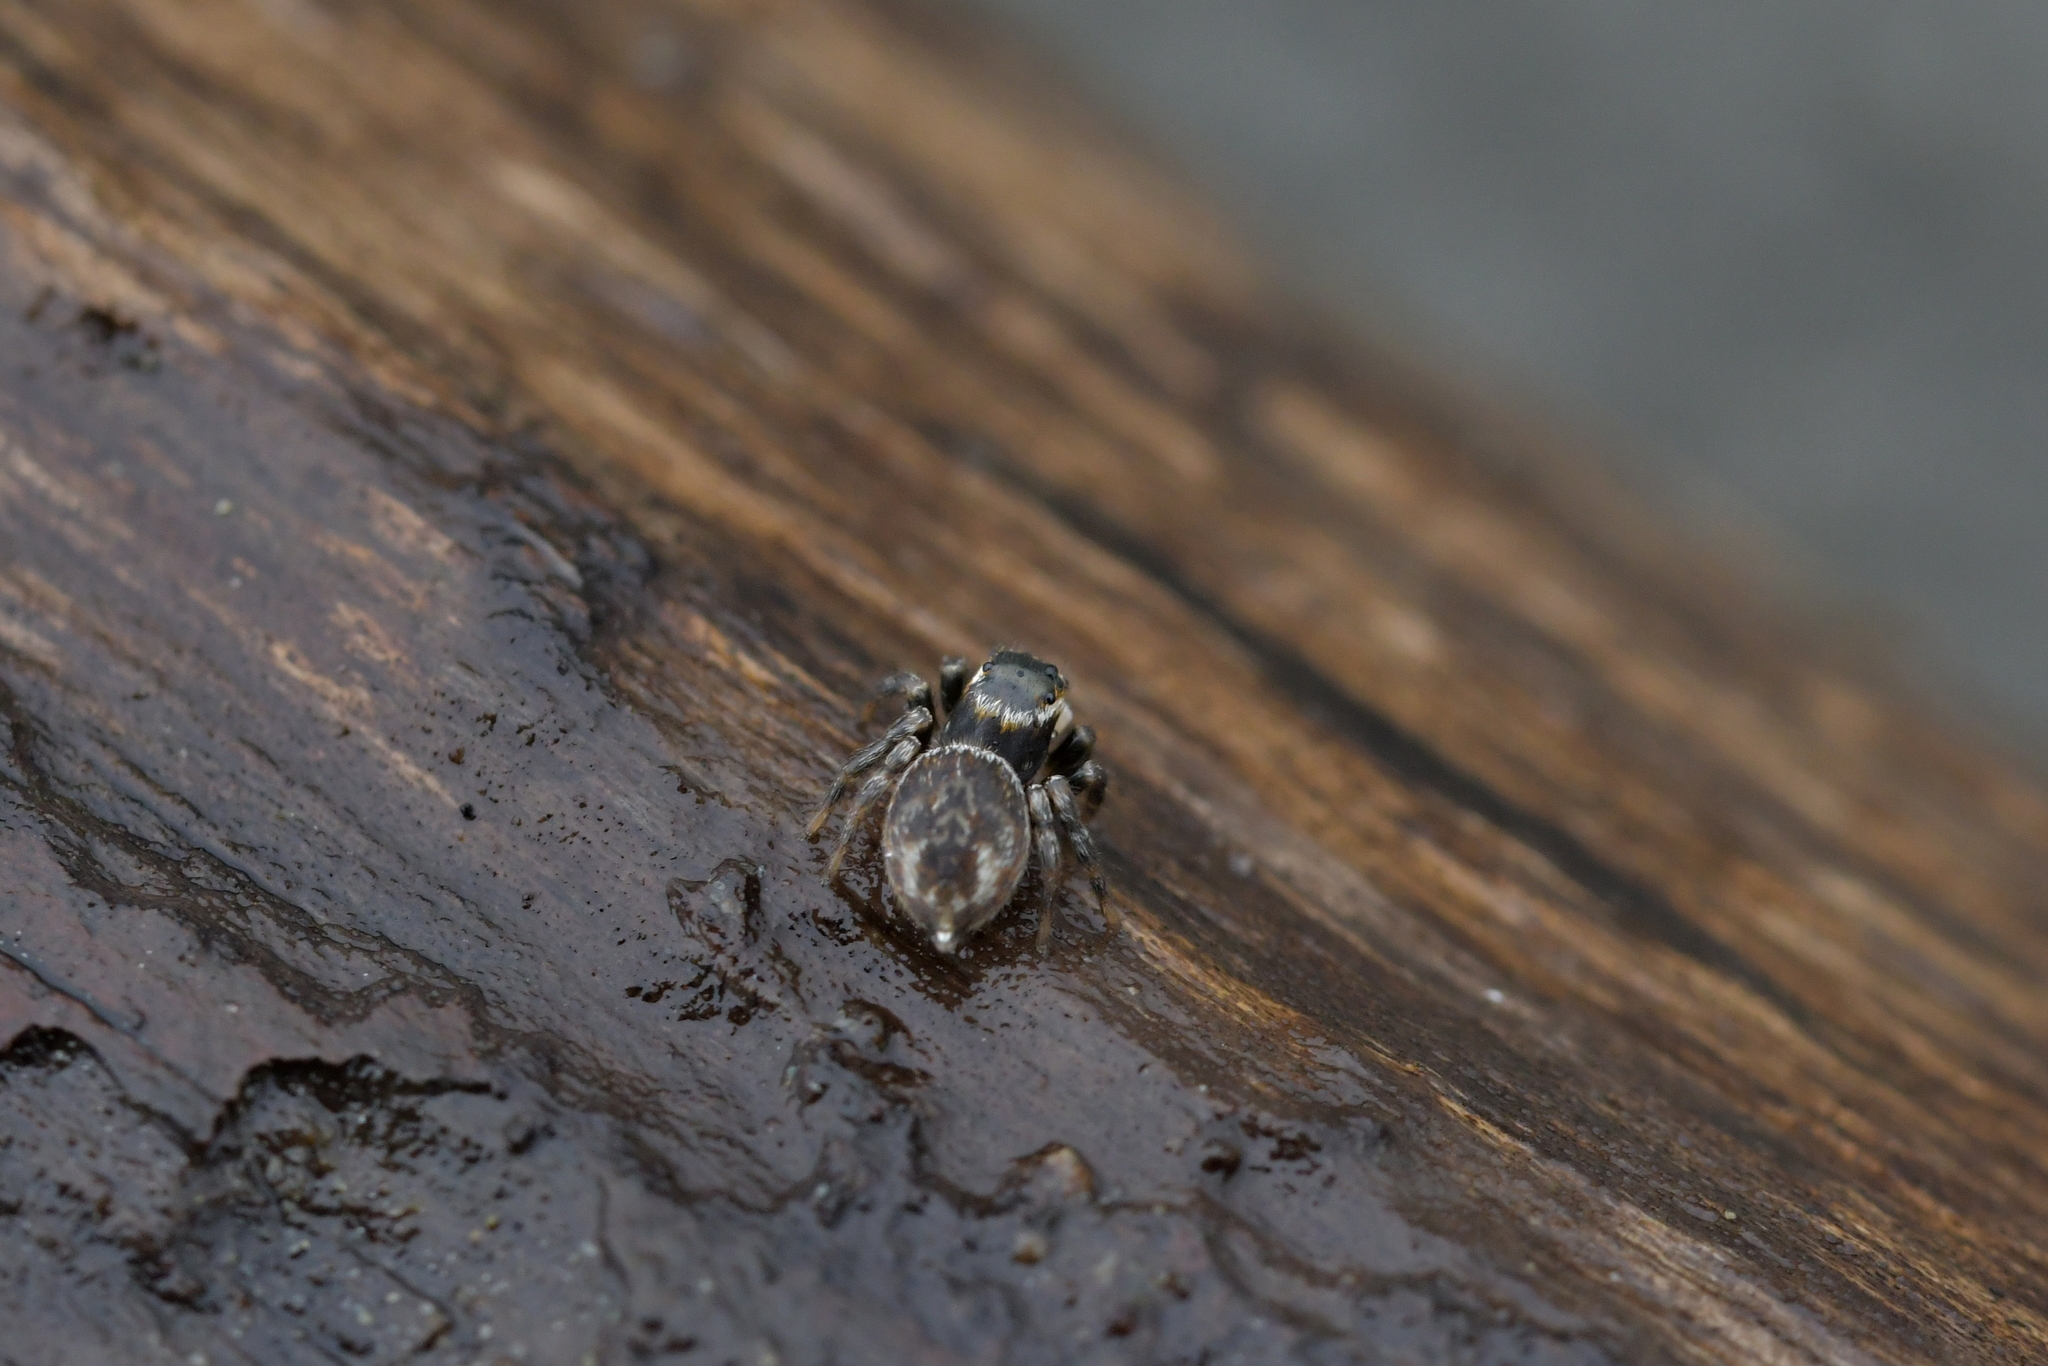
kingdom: Animalia
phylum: Arthropoda
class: Arachnida
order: Araneae
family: Salticidae
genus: Maratus
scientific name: Maratus griseus
